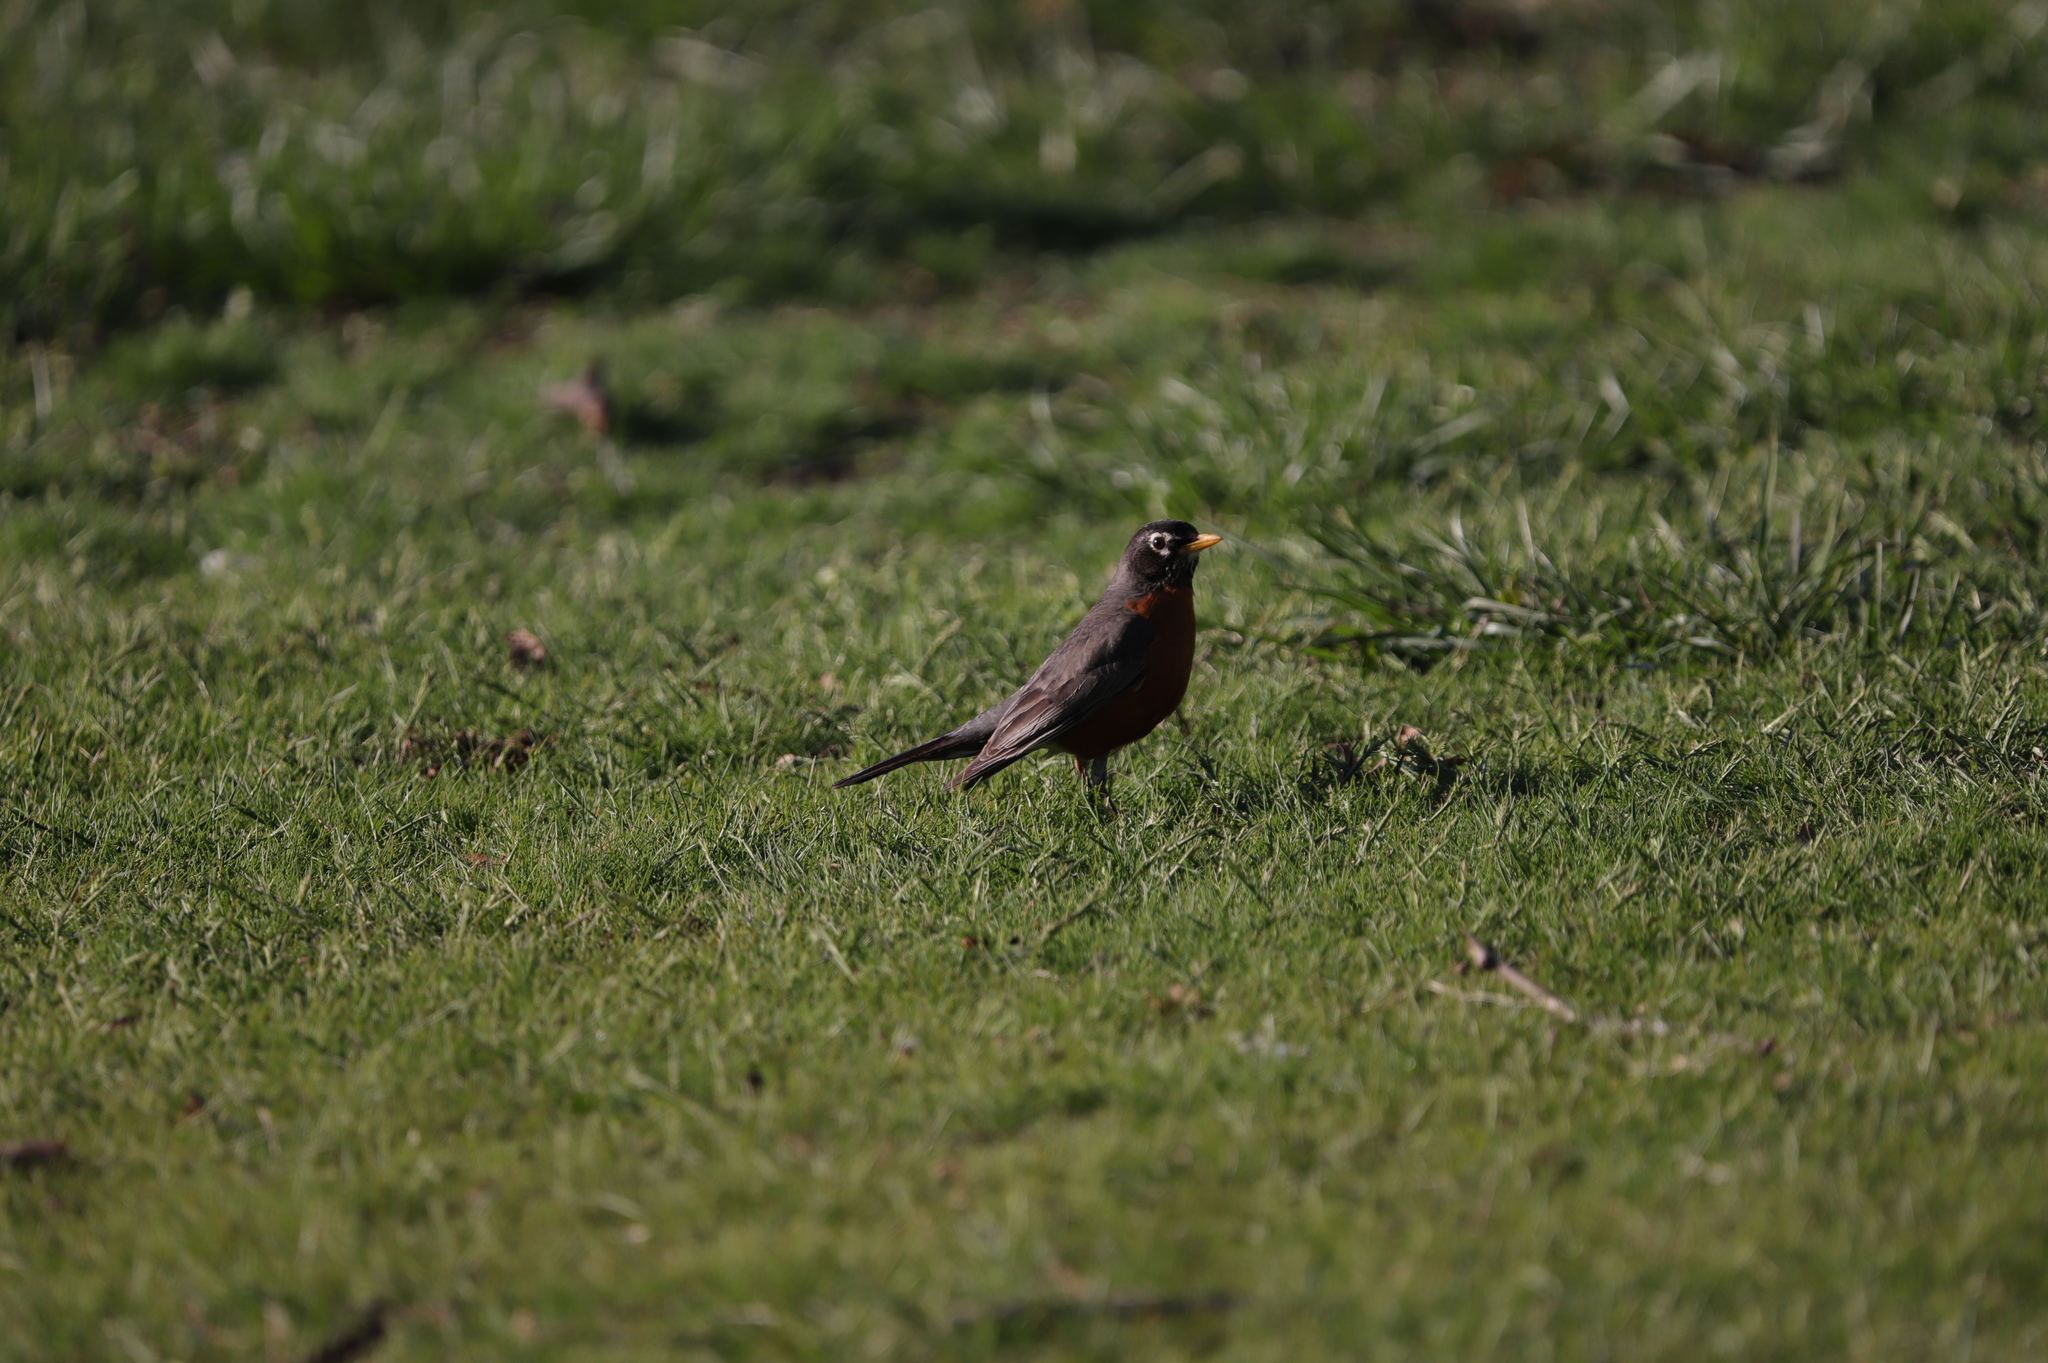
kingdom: Animalia
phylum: Chordata
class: Aves
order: Passeriformes
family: Turdidae
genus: Turdus
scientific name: Turdus migratorius
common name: American robin
